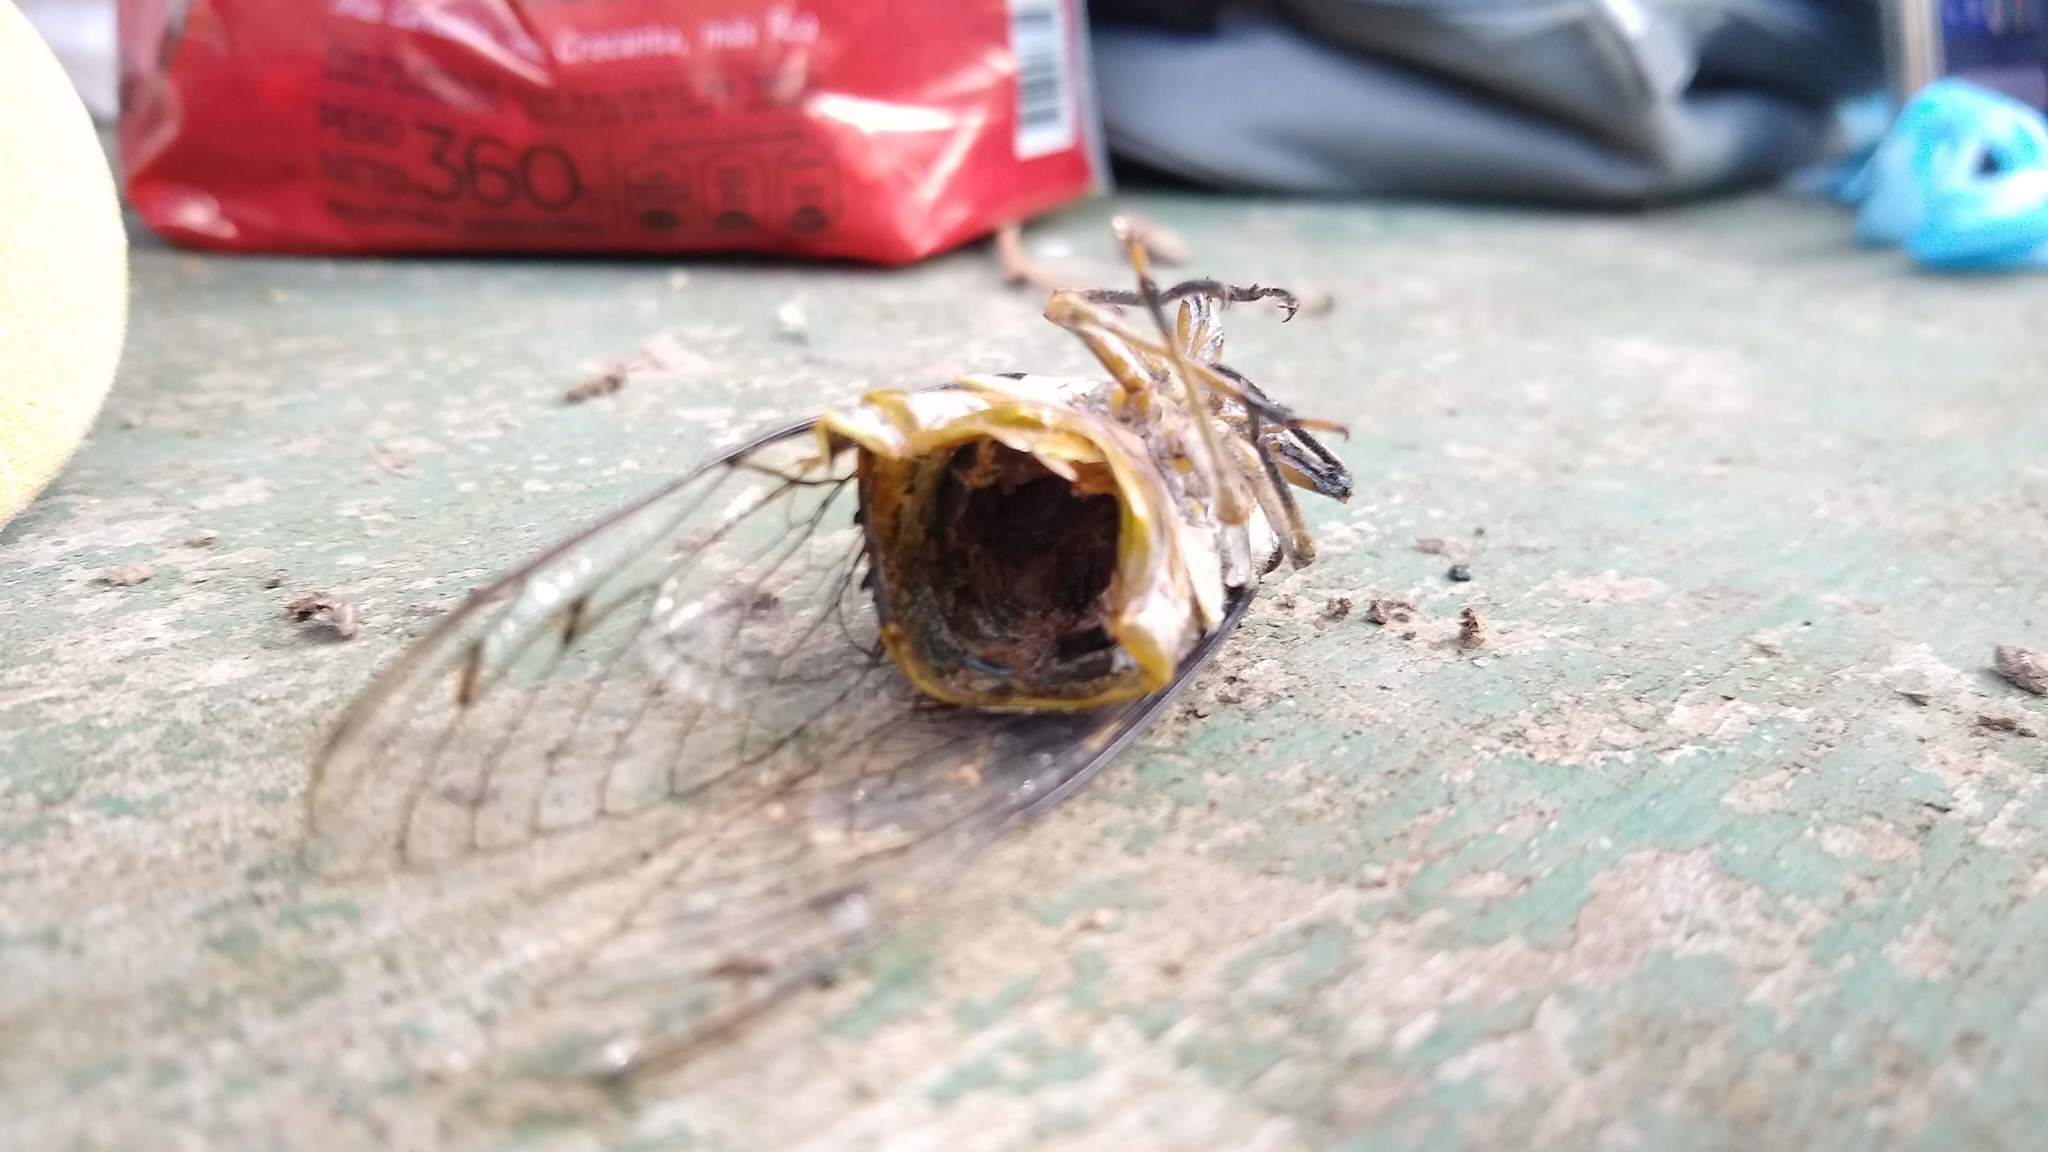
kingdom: Animalia
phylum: Arthropoda
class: Insecta
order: Hemiptera
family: Cicadidae
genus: Quesada
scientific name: Quesada gigas
